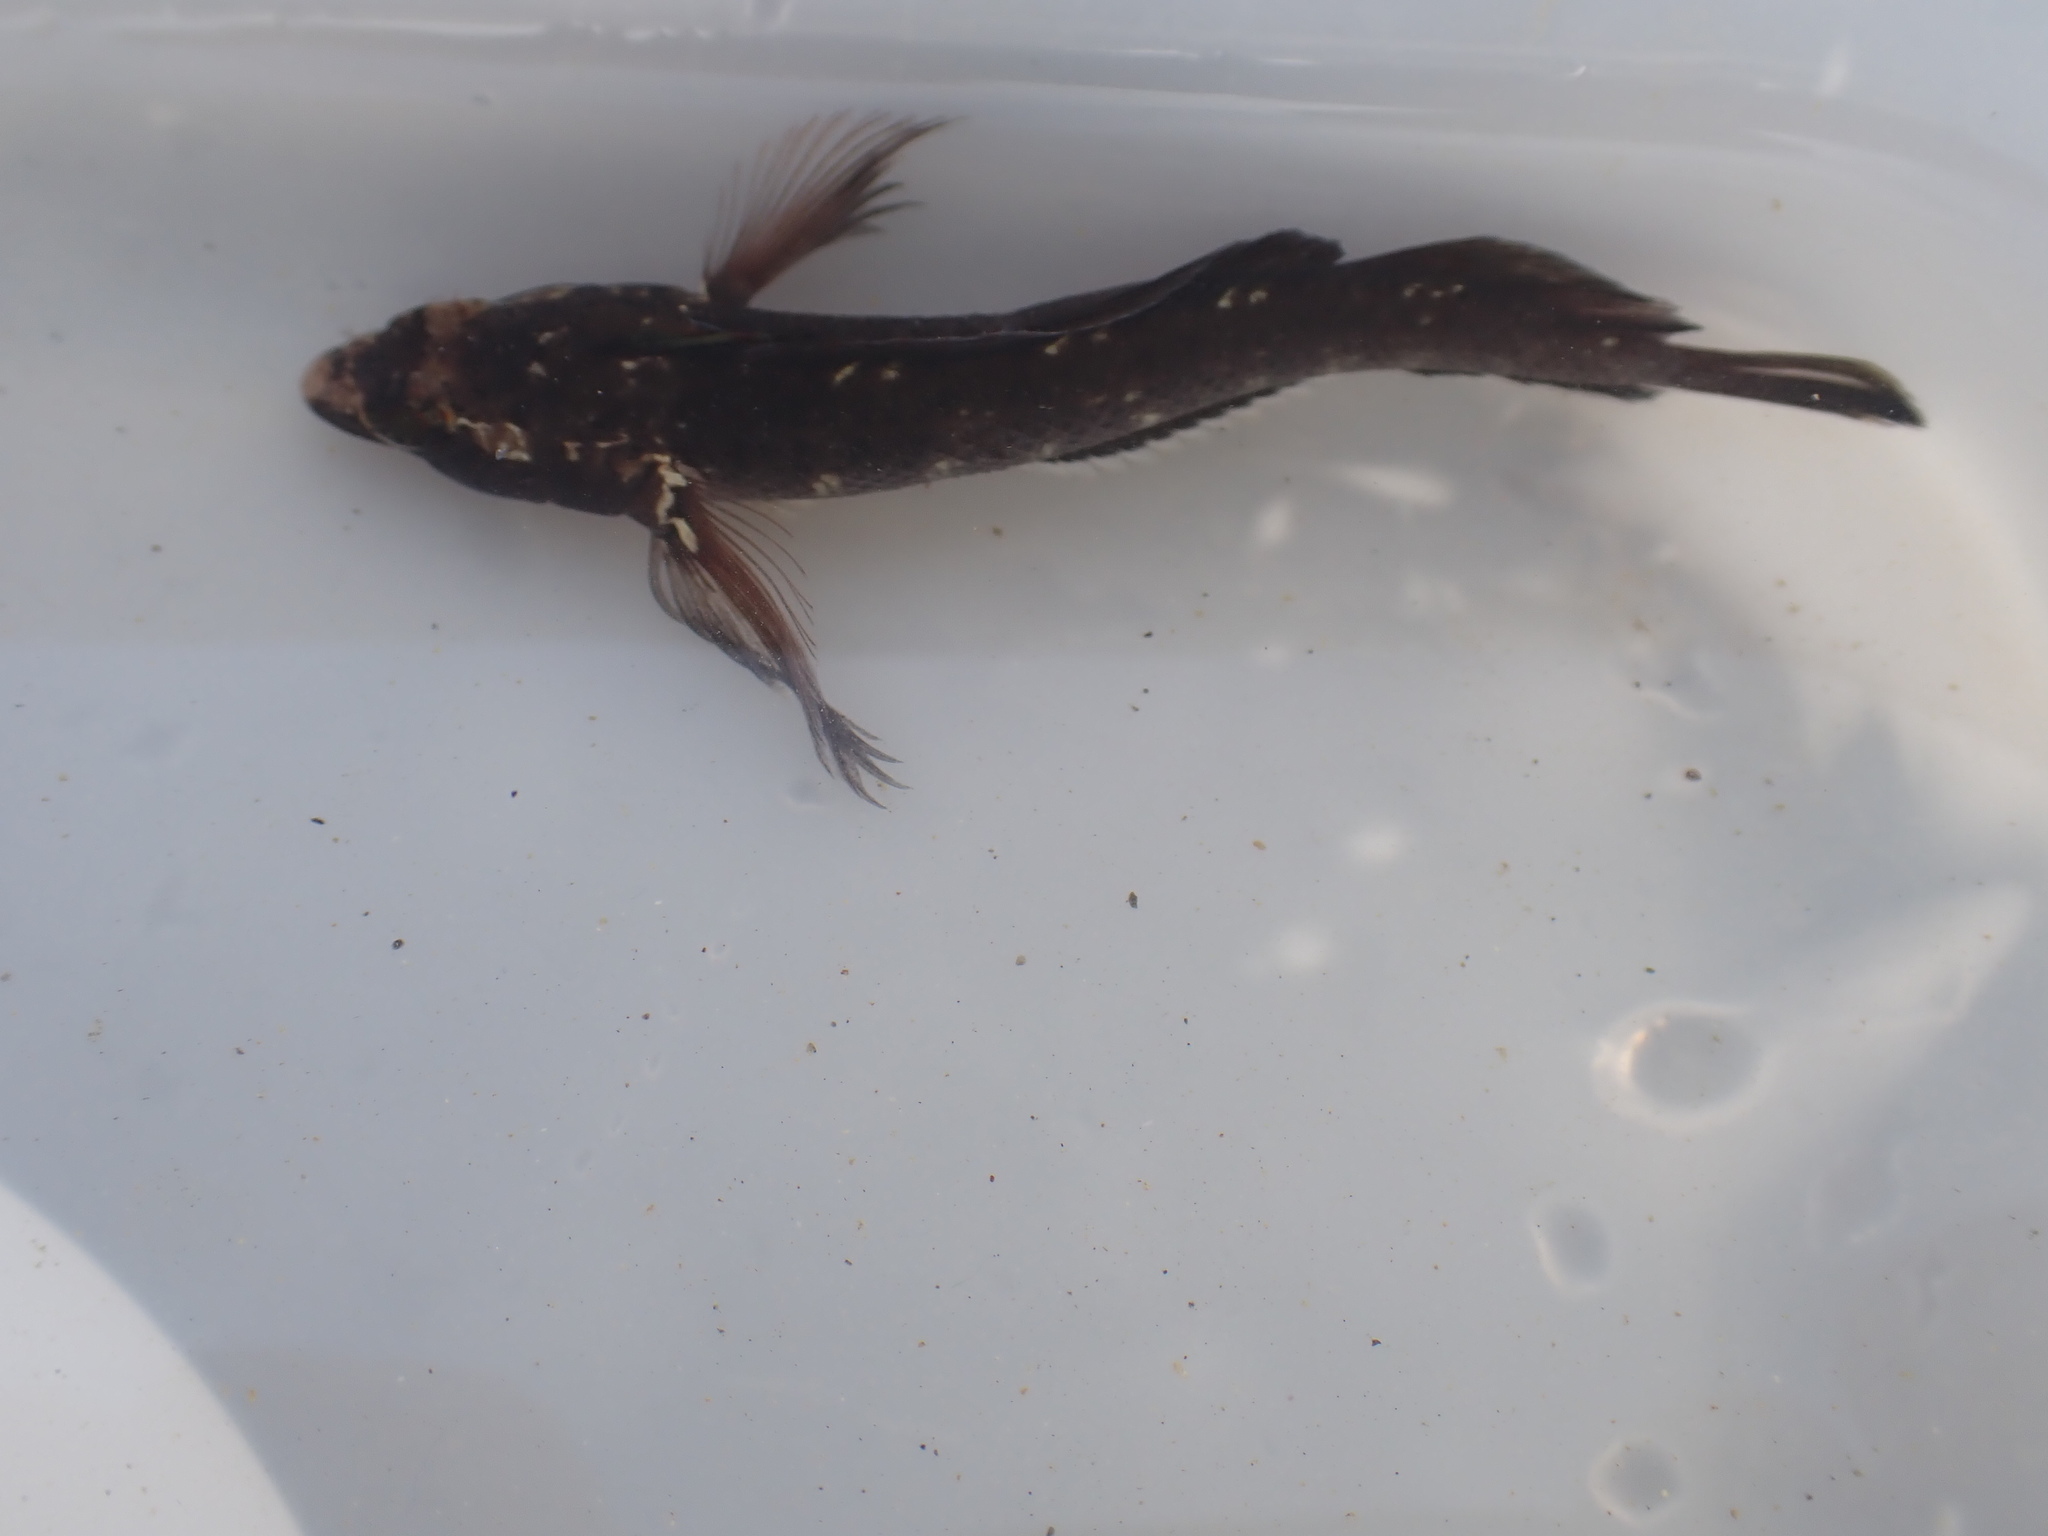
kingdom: Animalia
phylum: Chordata
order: Perciformes
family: Tripterygiidae
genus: Ruanoho
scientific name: Ruanoho decemdigitatus
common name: Longfinned triplefin
